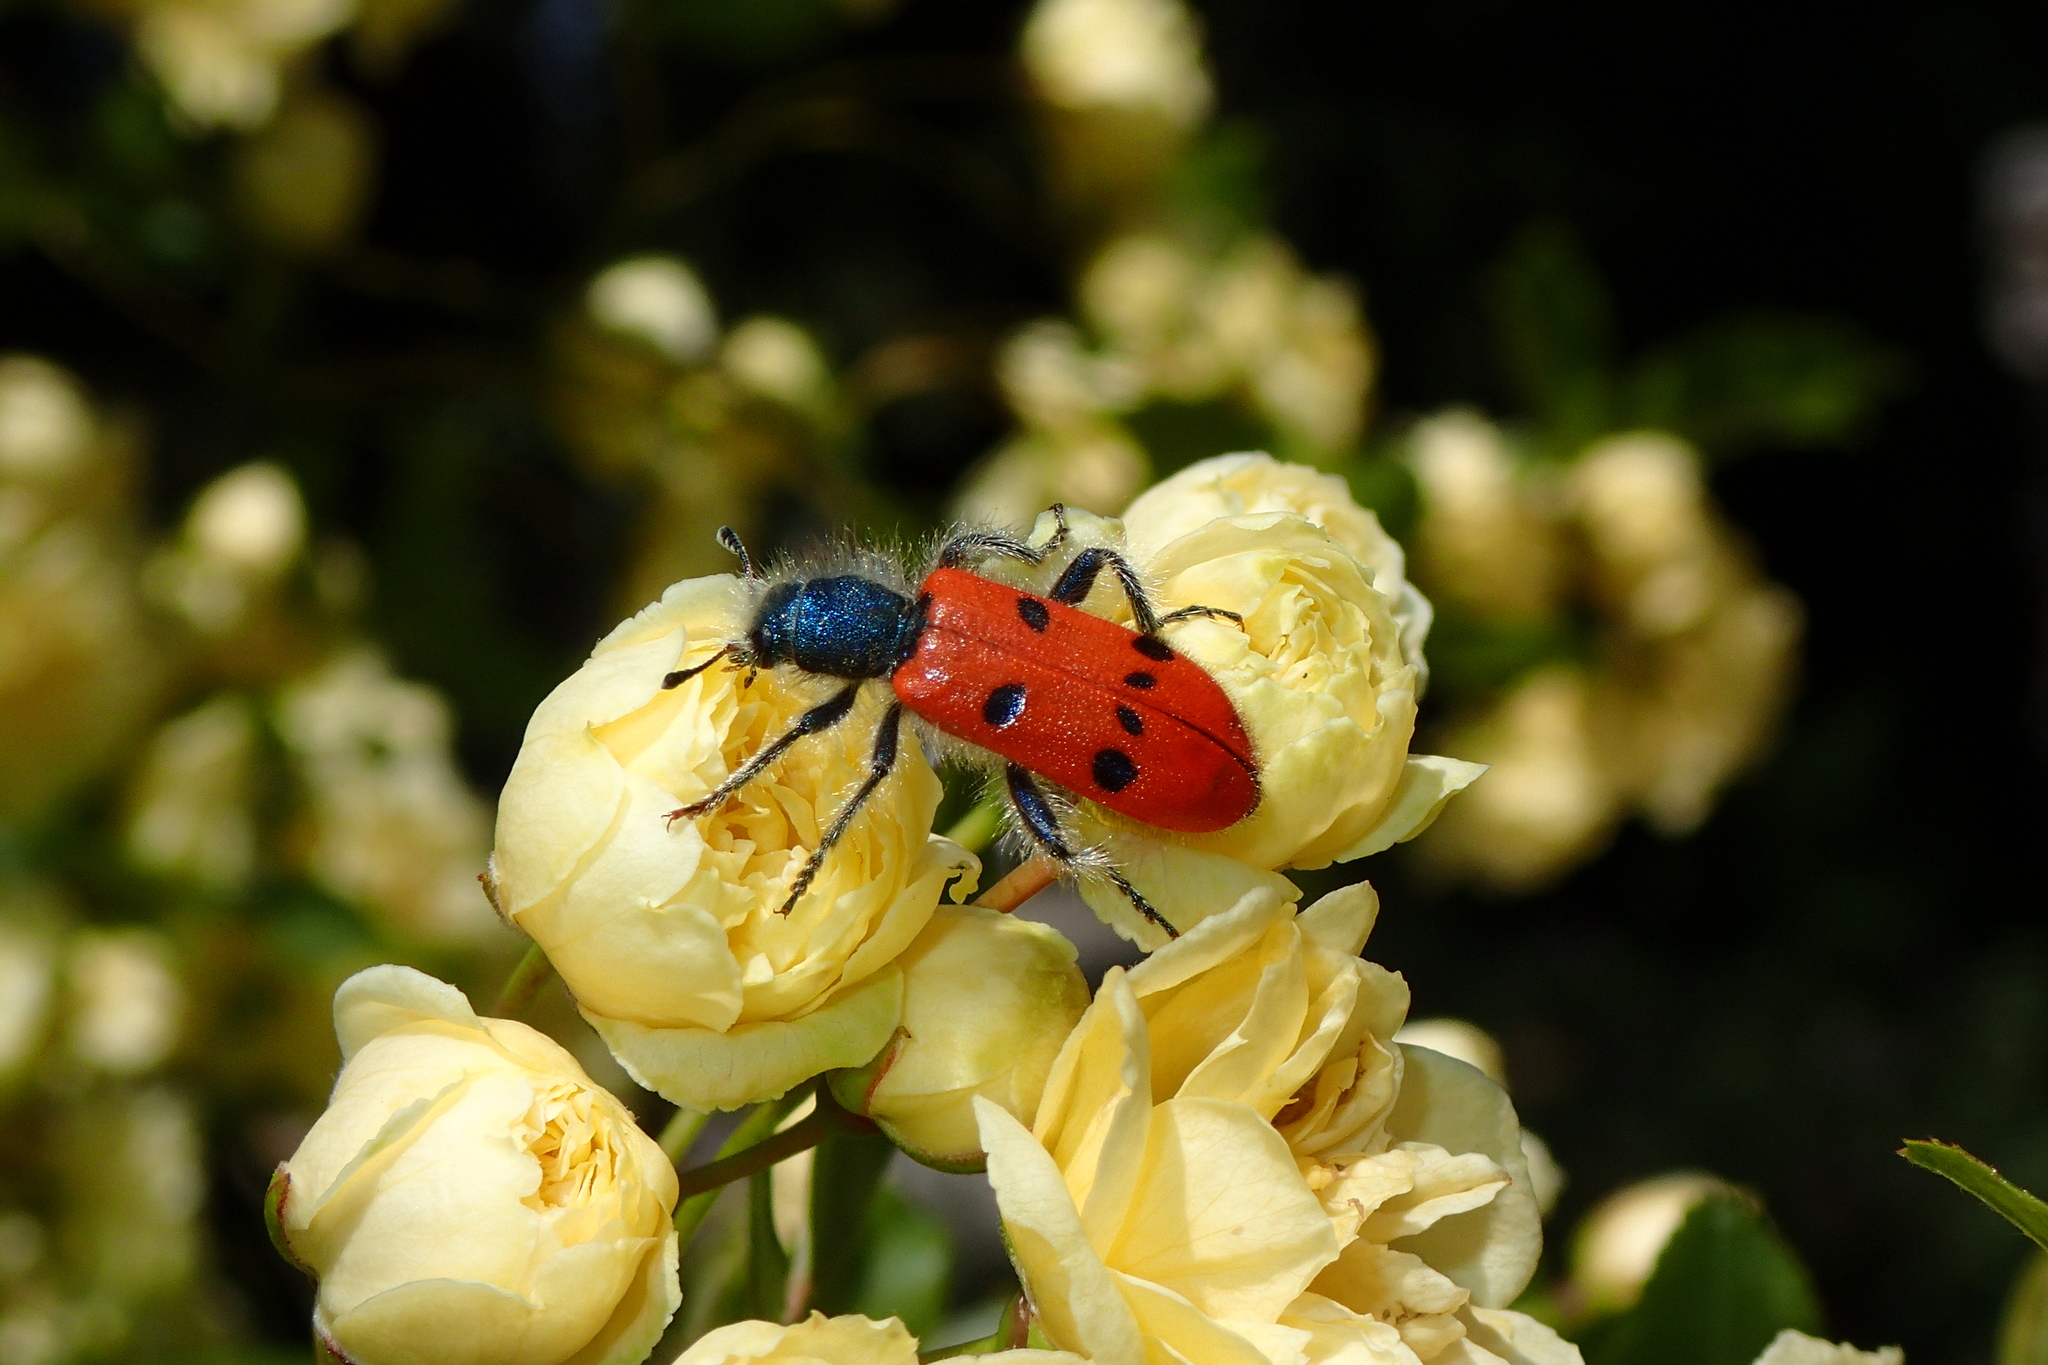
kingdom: Animalia
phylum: Arthropoda
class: Insecta
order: Coleoptera
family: Cleridae
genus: Trichodes
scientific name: Trichodes octopunctatus
